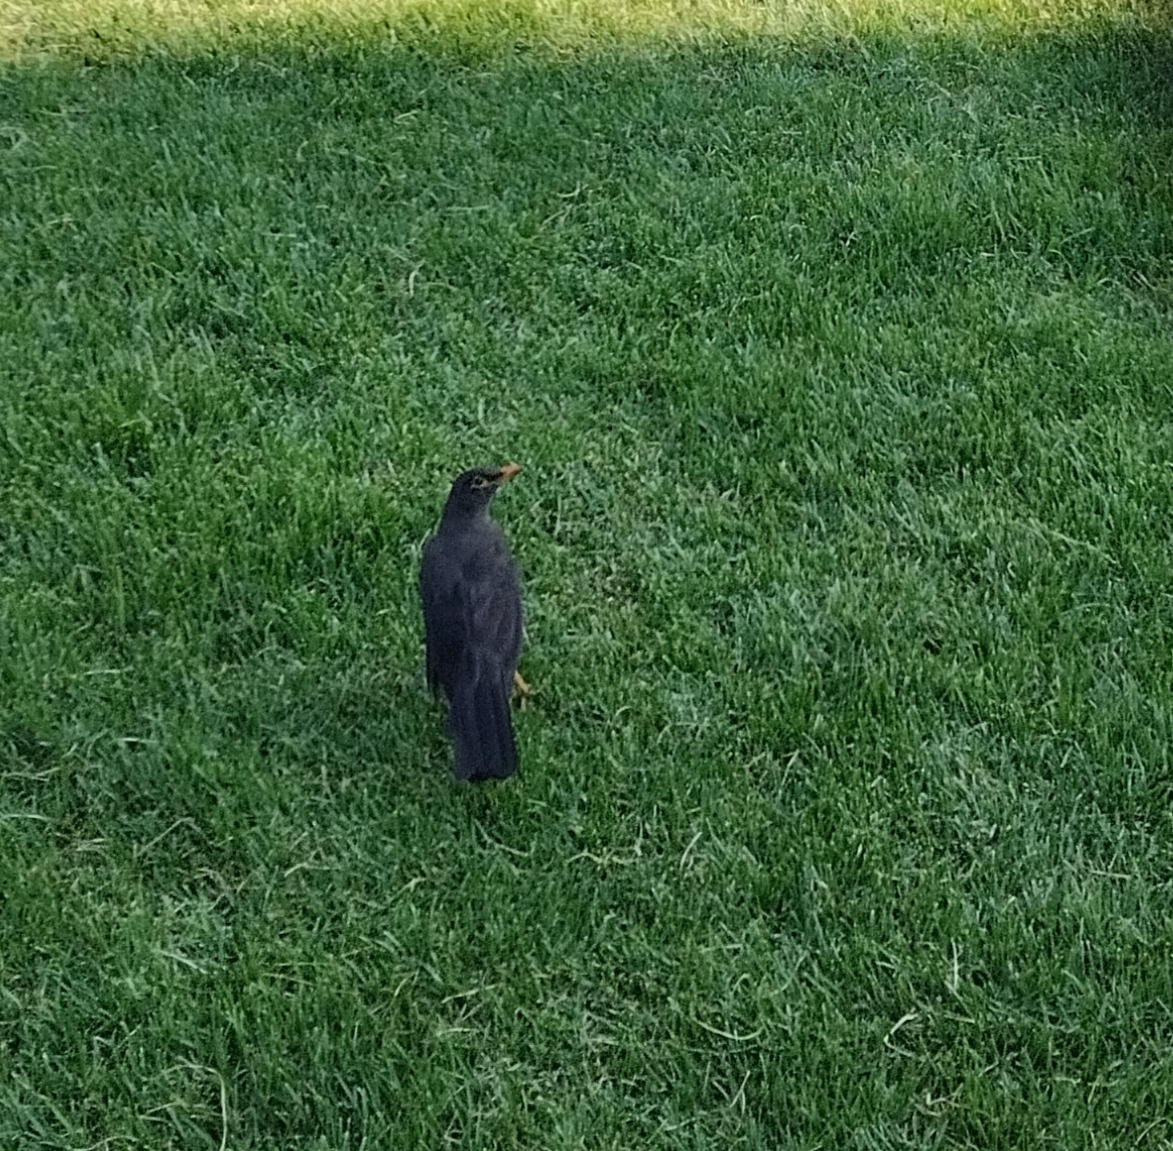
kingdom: Animalia
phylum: Chordata
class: Aves
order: Passeriformes
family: Turdidae
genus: Turdus
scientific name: Turdus fuscater
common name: Great thrush
